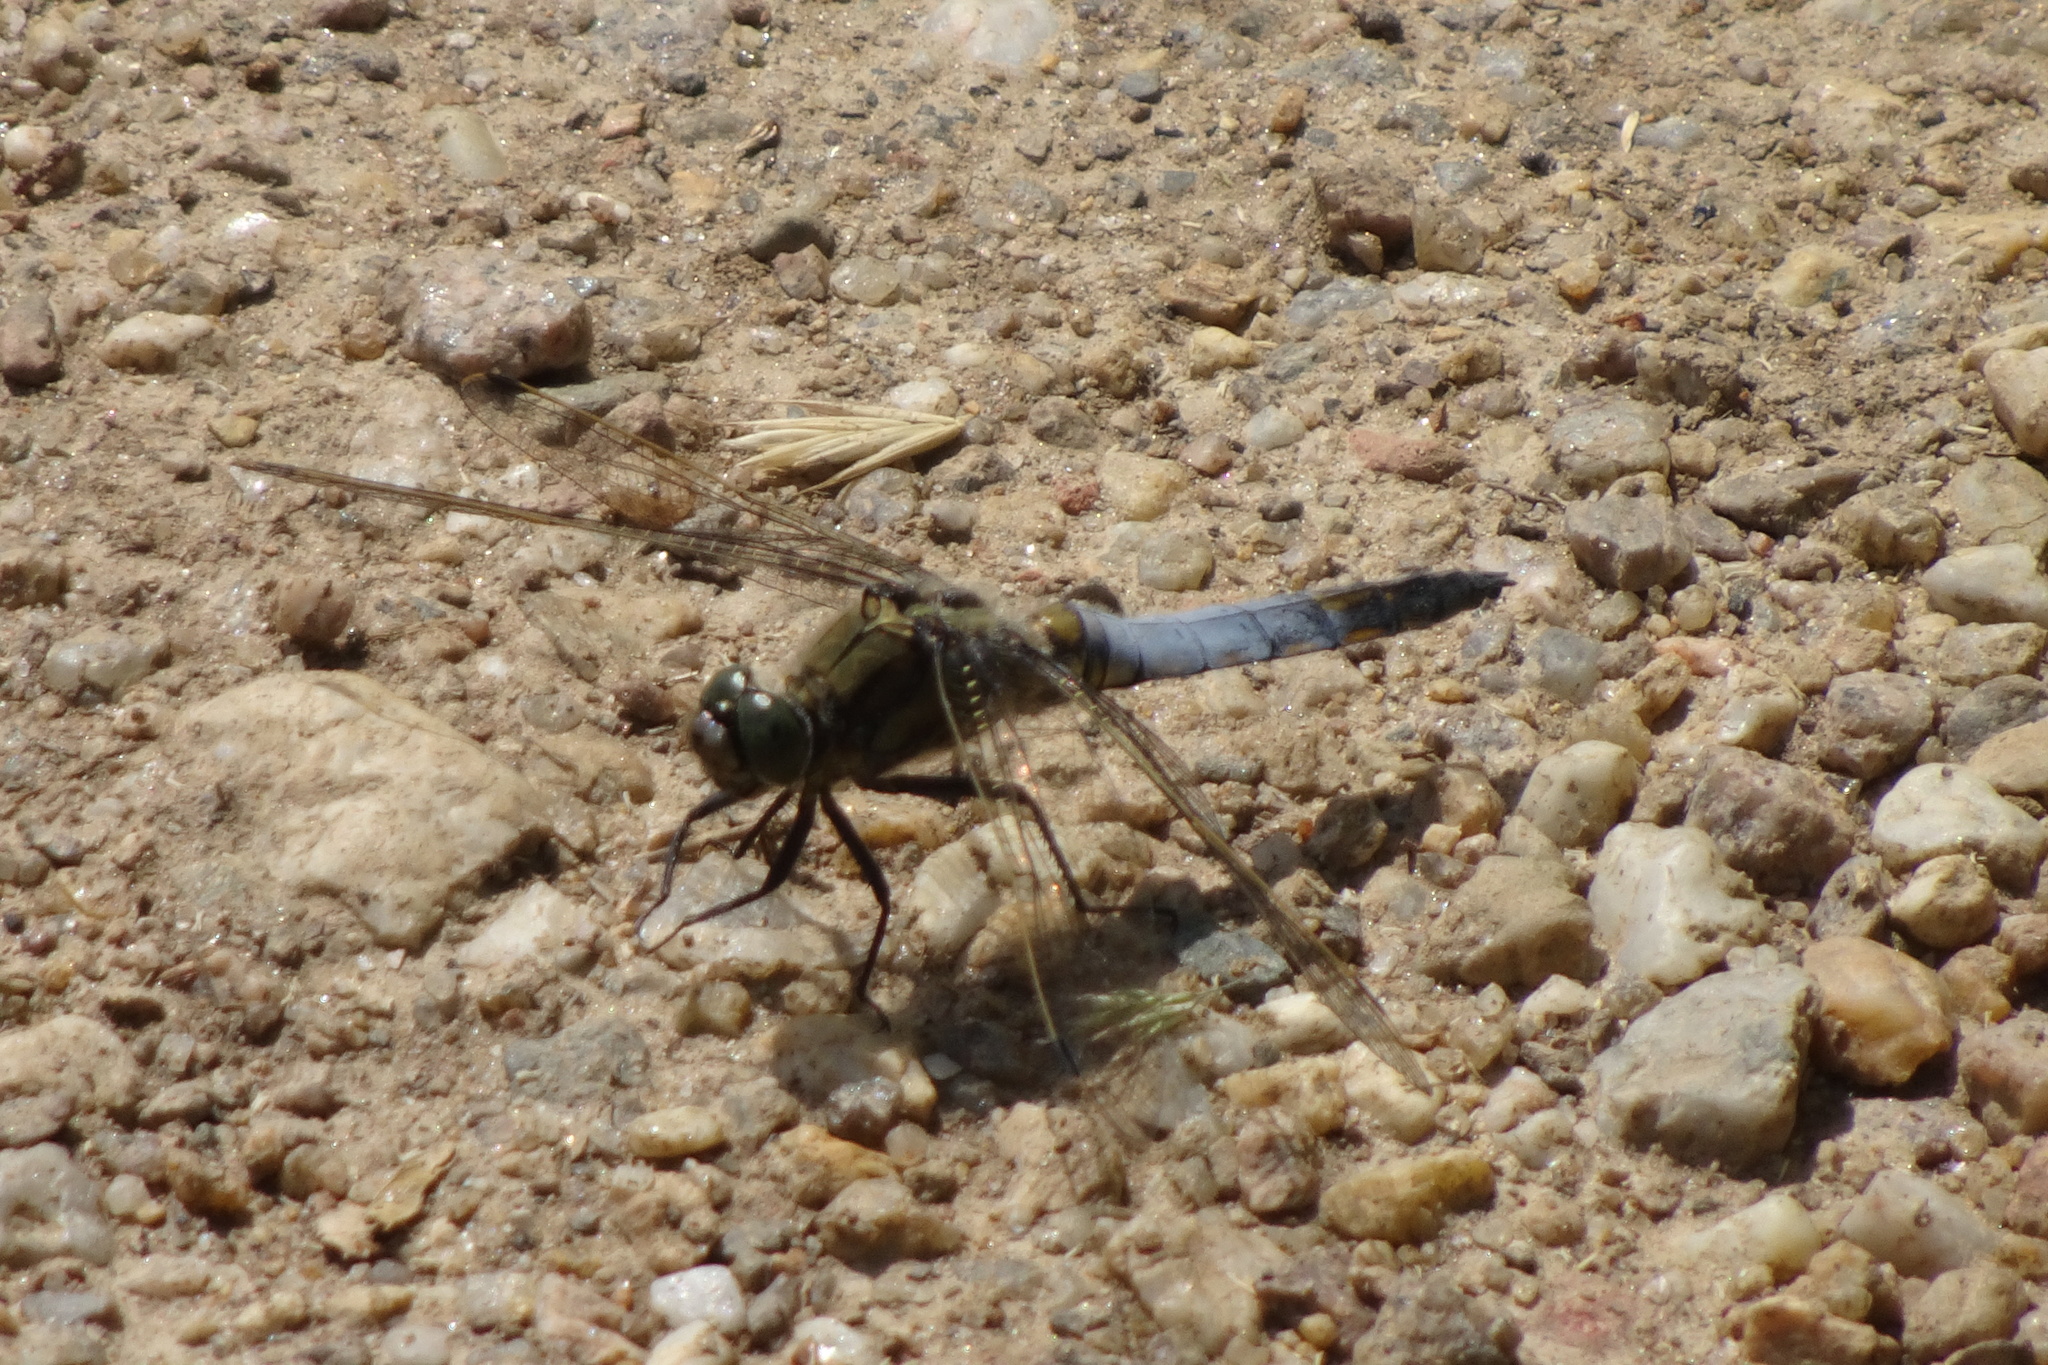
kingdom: Animalia
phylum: Arthropoda
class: Insecta
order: Odonata
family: Libellulidae
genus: Orthetrum
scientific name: Orthetrum cancellatum
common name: Black-tailed skimmer
